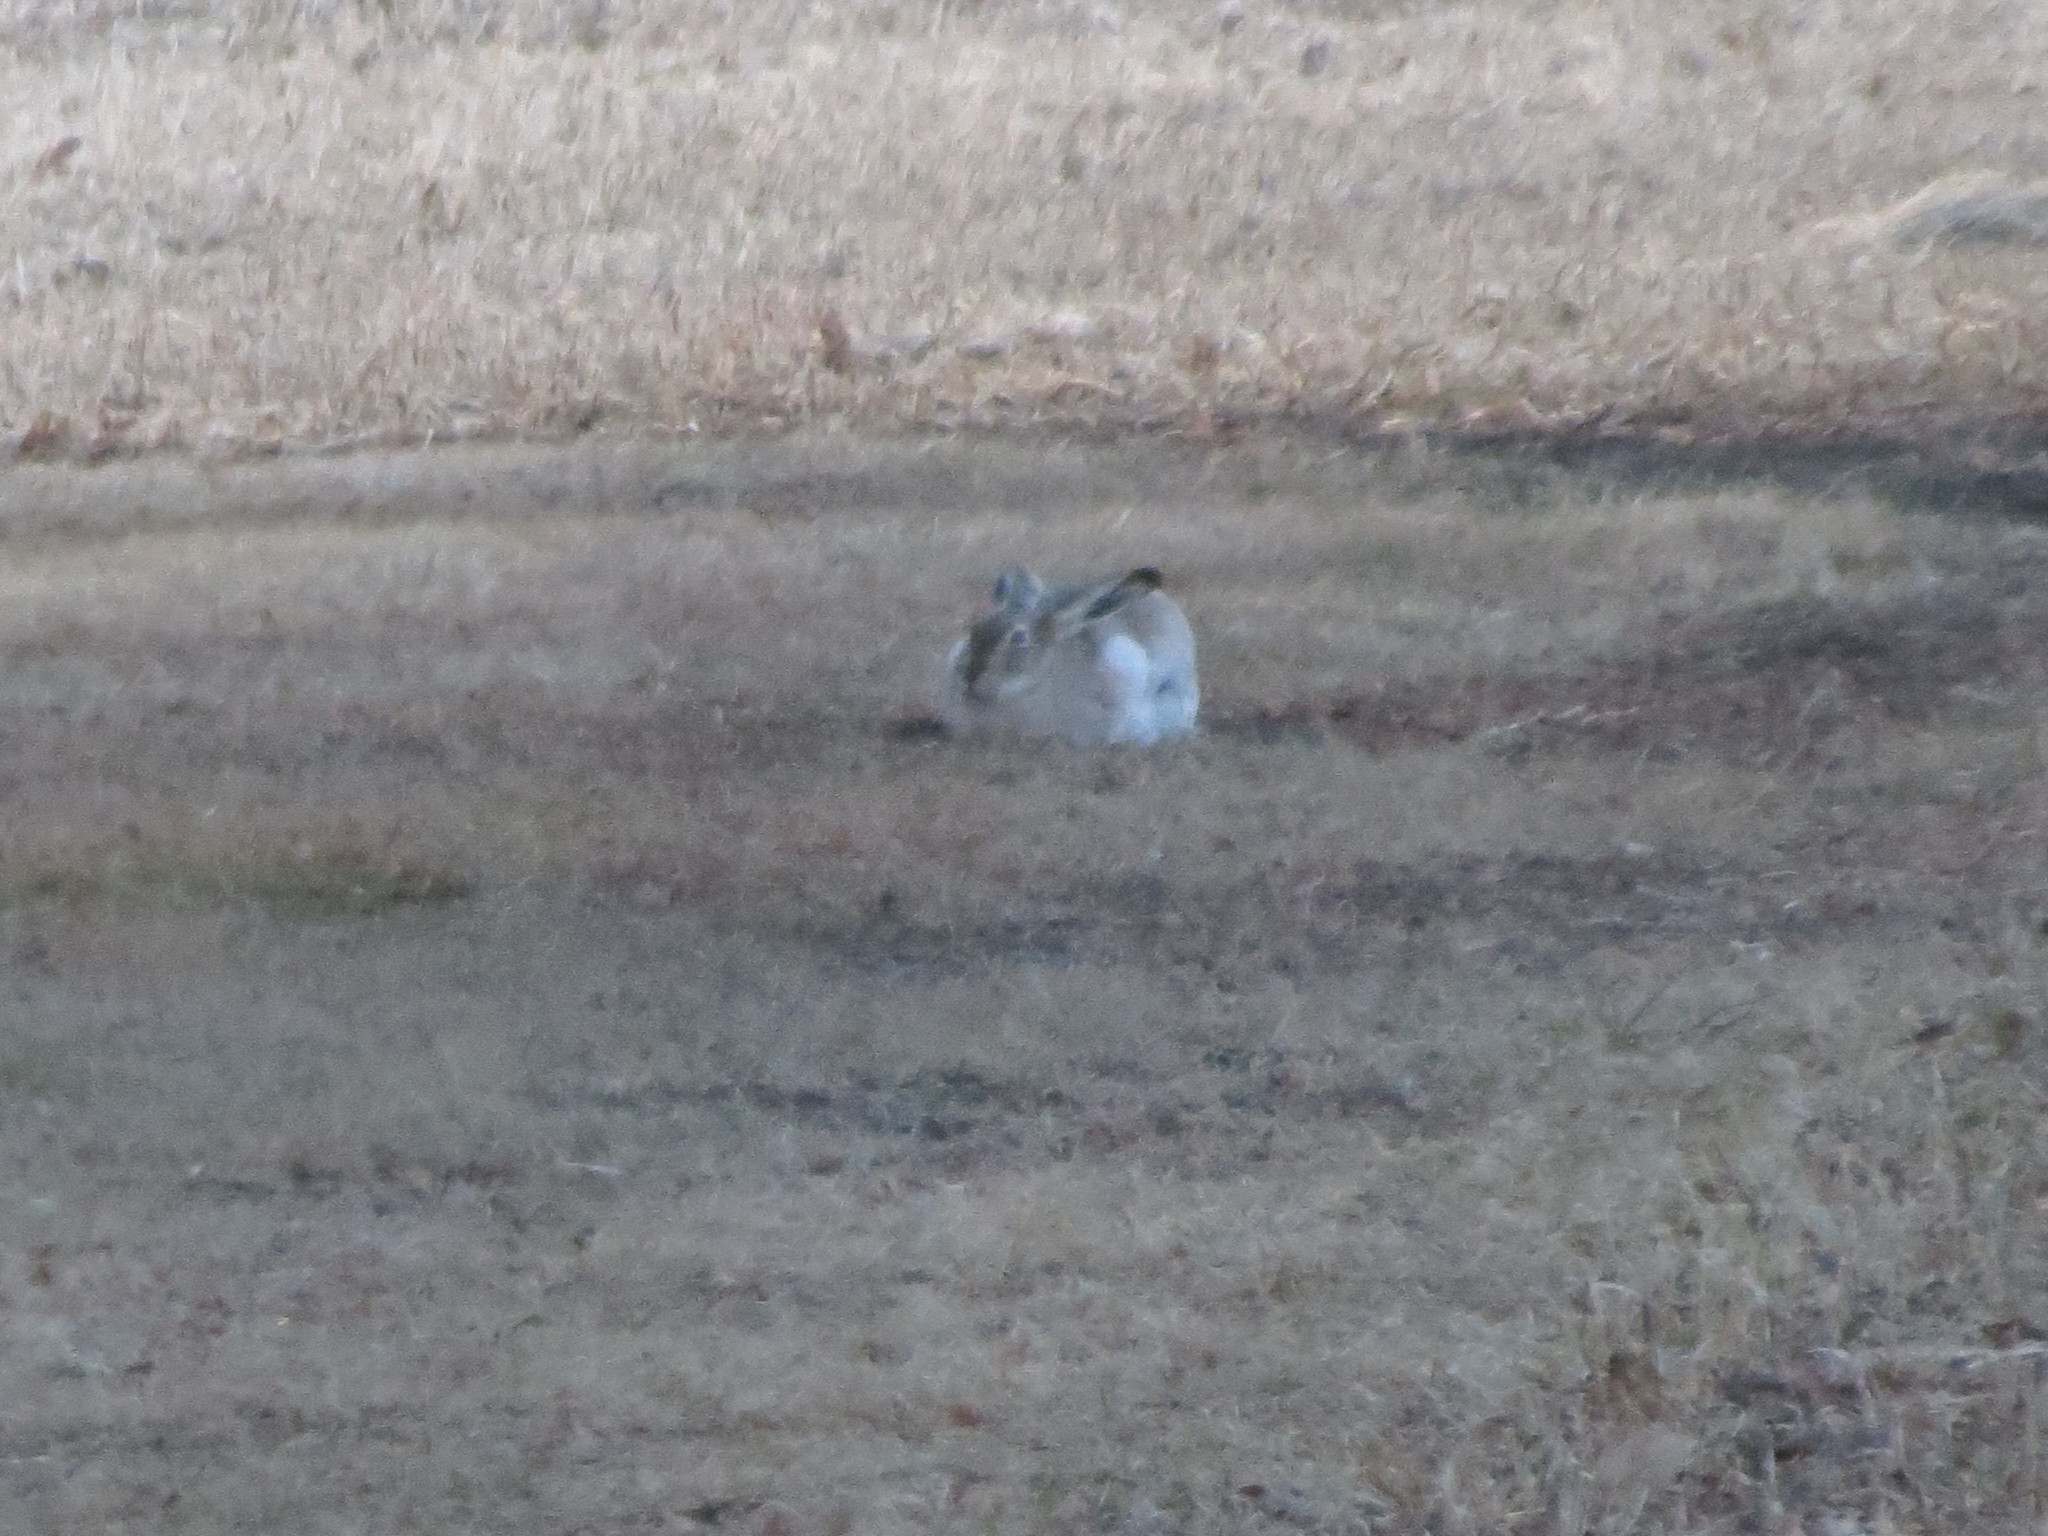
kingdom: Animalia
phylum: Chordata
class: Mammalia
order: Lagomorpha
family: Leporidae
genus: Lepus
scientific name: Lepus townsendii
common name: White-tailed jackrabbit
